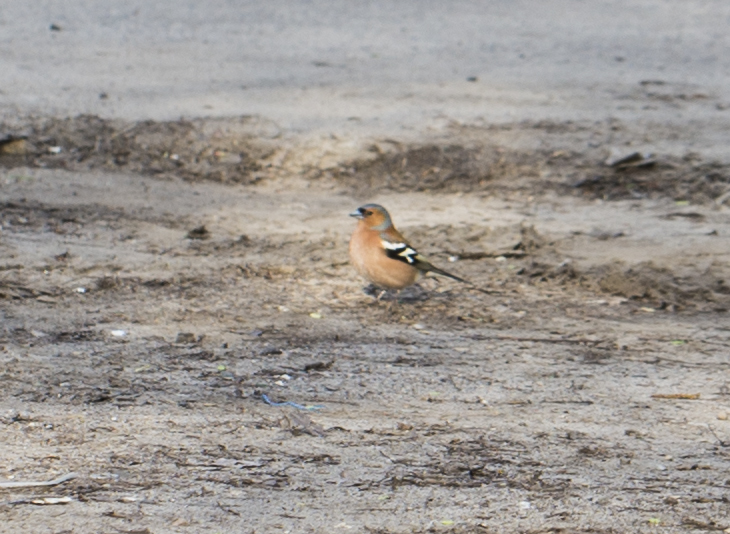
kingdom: Animalia
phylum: Chordata
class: Aves
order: Passeriformes
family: Fringillidae
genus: Fringilla
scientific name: Fringilla coelebs
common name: Common chaffinch
